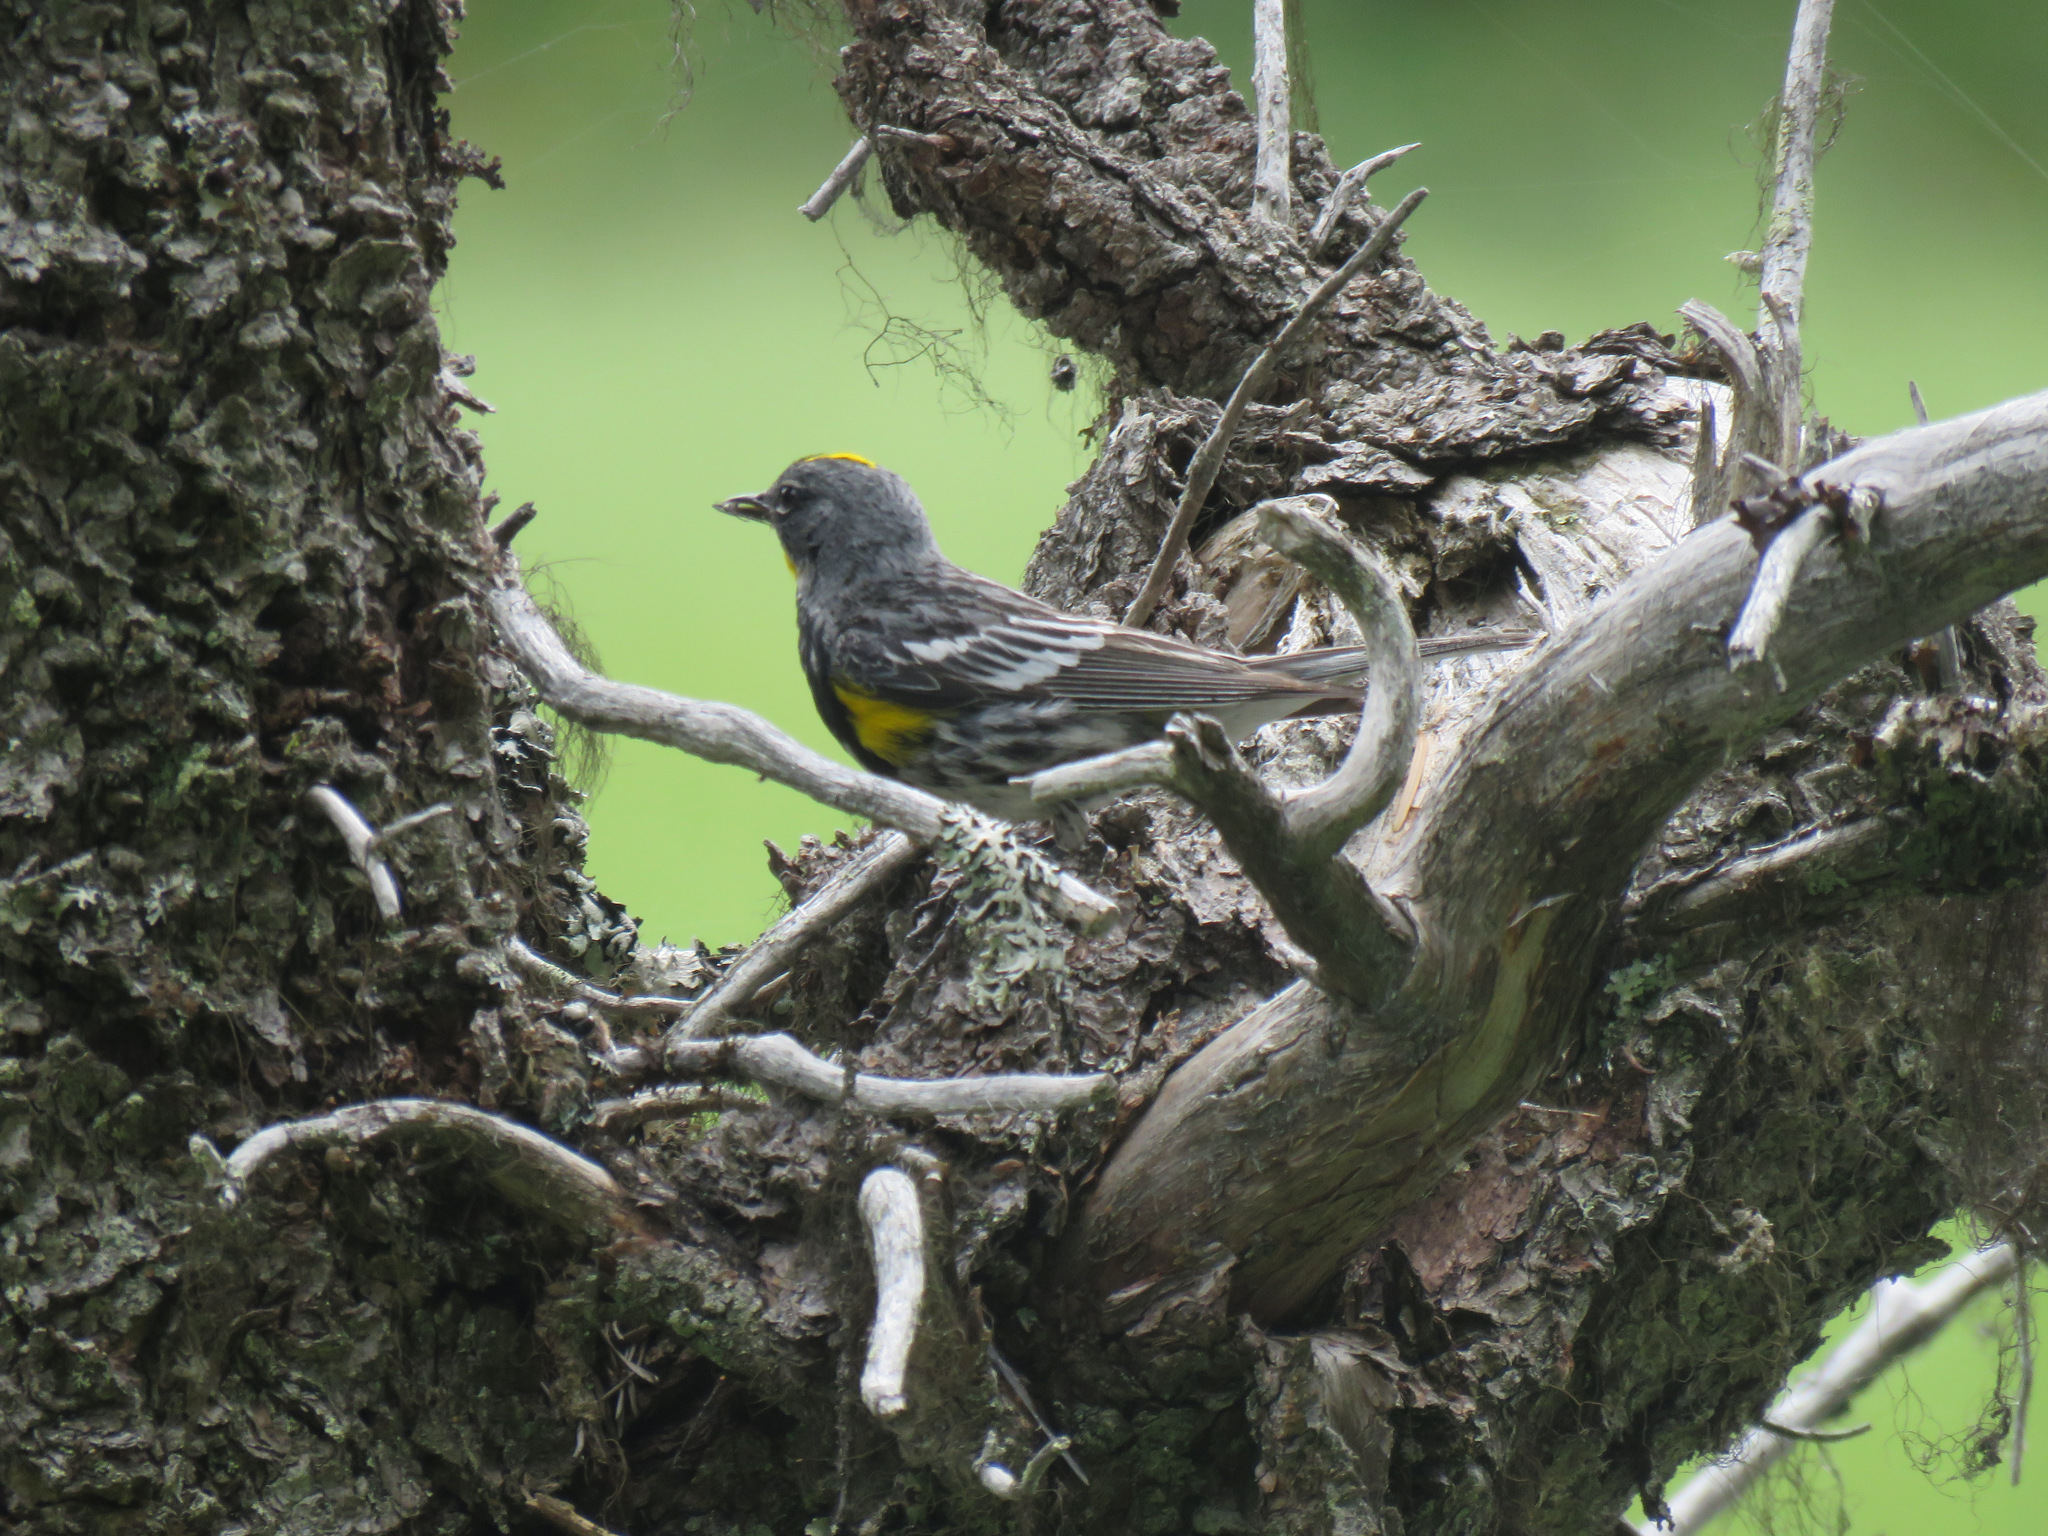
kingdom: Animalia
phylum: Chordata
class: Aves
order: Passeriformes
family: Parulidae
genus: Setophaga
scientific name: Setophaga coronata
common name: Myrtle warbler
